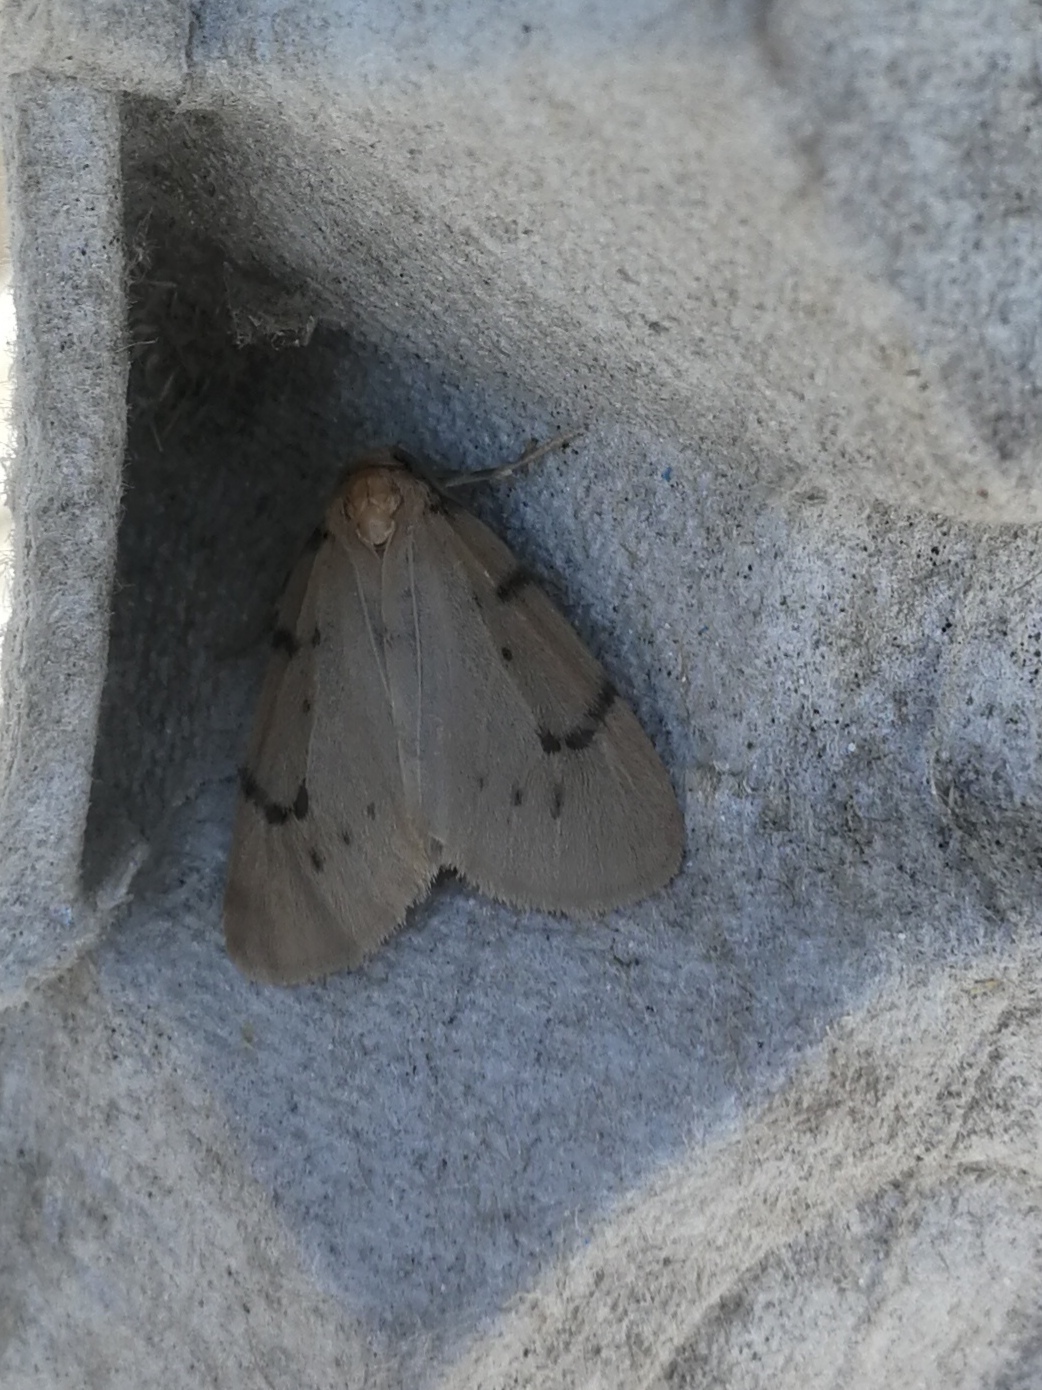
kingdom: Animalia
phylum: Arthropoda
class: Insecta
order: Lepidoptera
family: Erebidae
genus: Paidia
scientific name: Paidia rica
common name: Glaucous muslin
